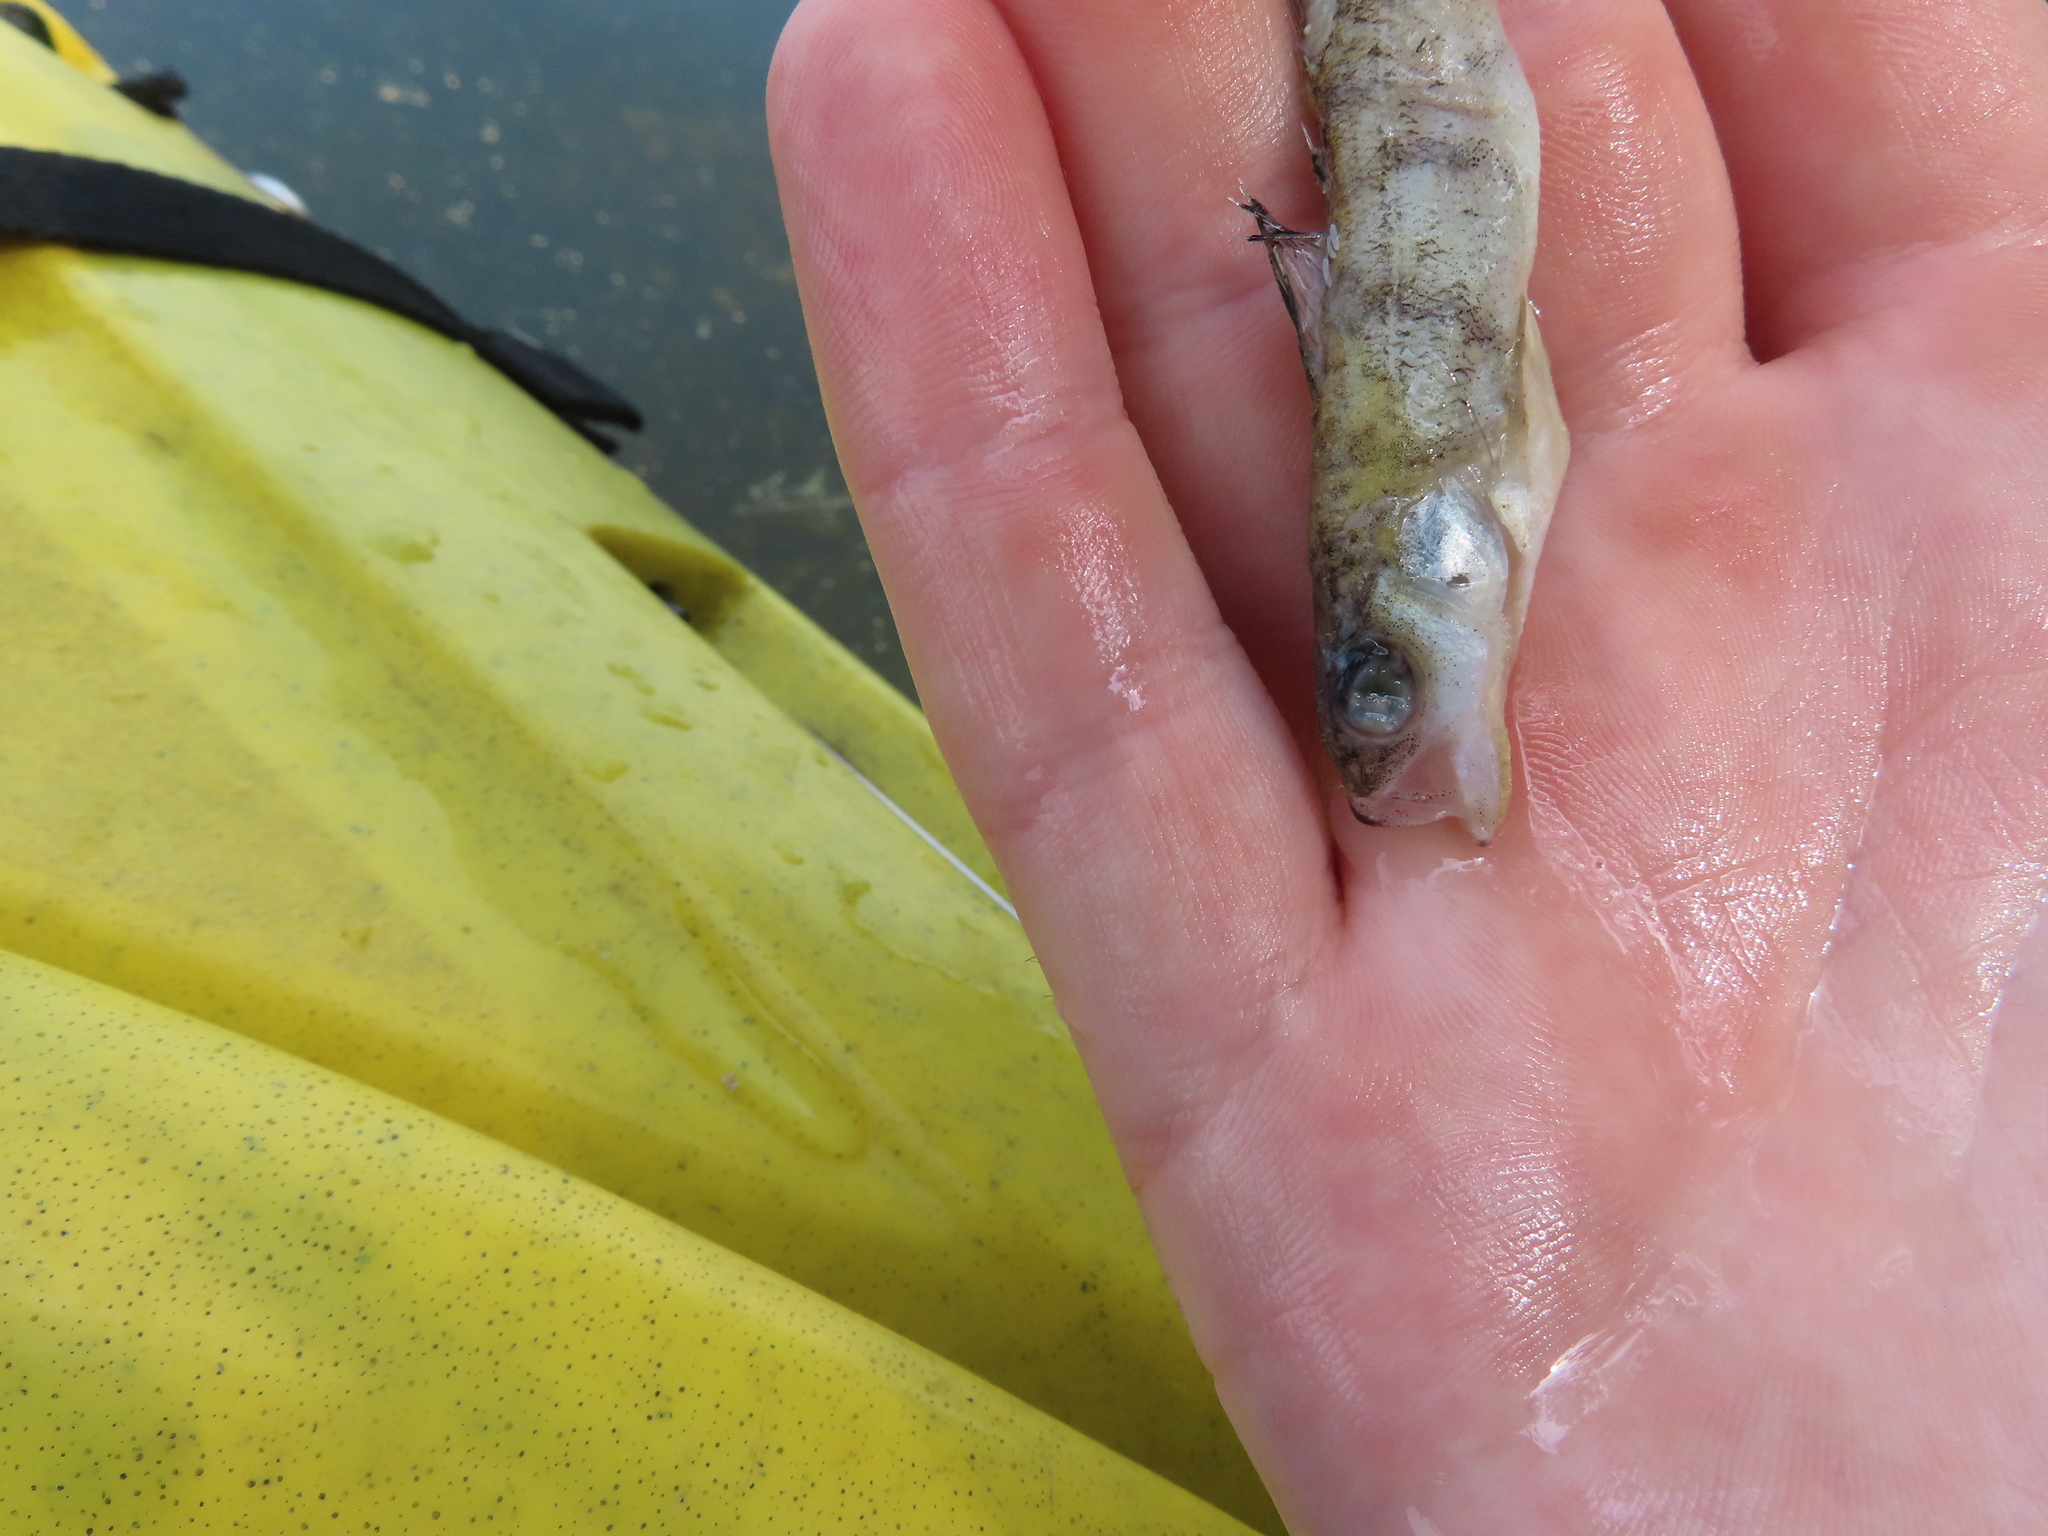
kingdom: Animalia
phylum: Chordata
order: Perciformes
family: Percidae
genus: Perca
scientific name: Perca flavescens
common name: Yellow perch
